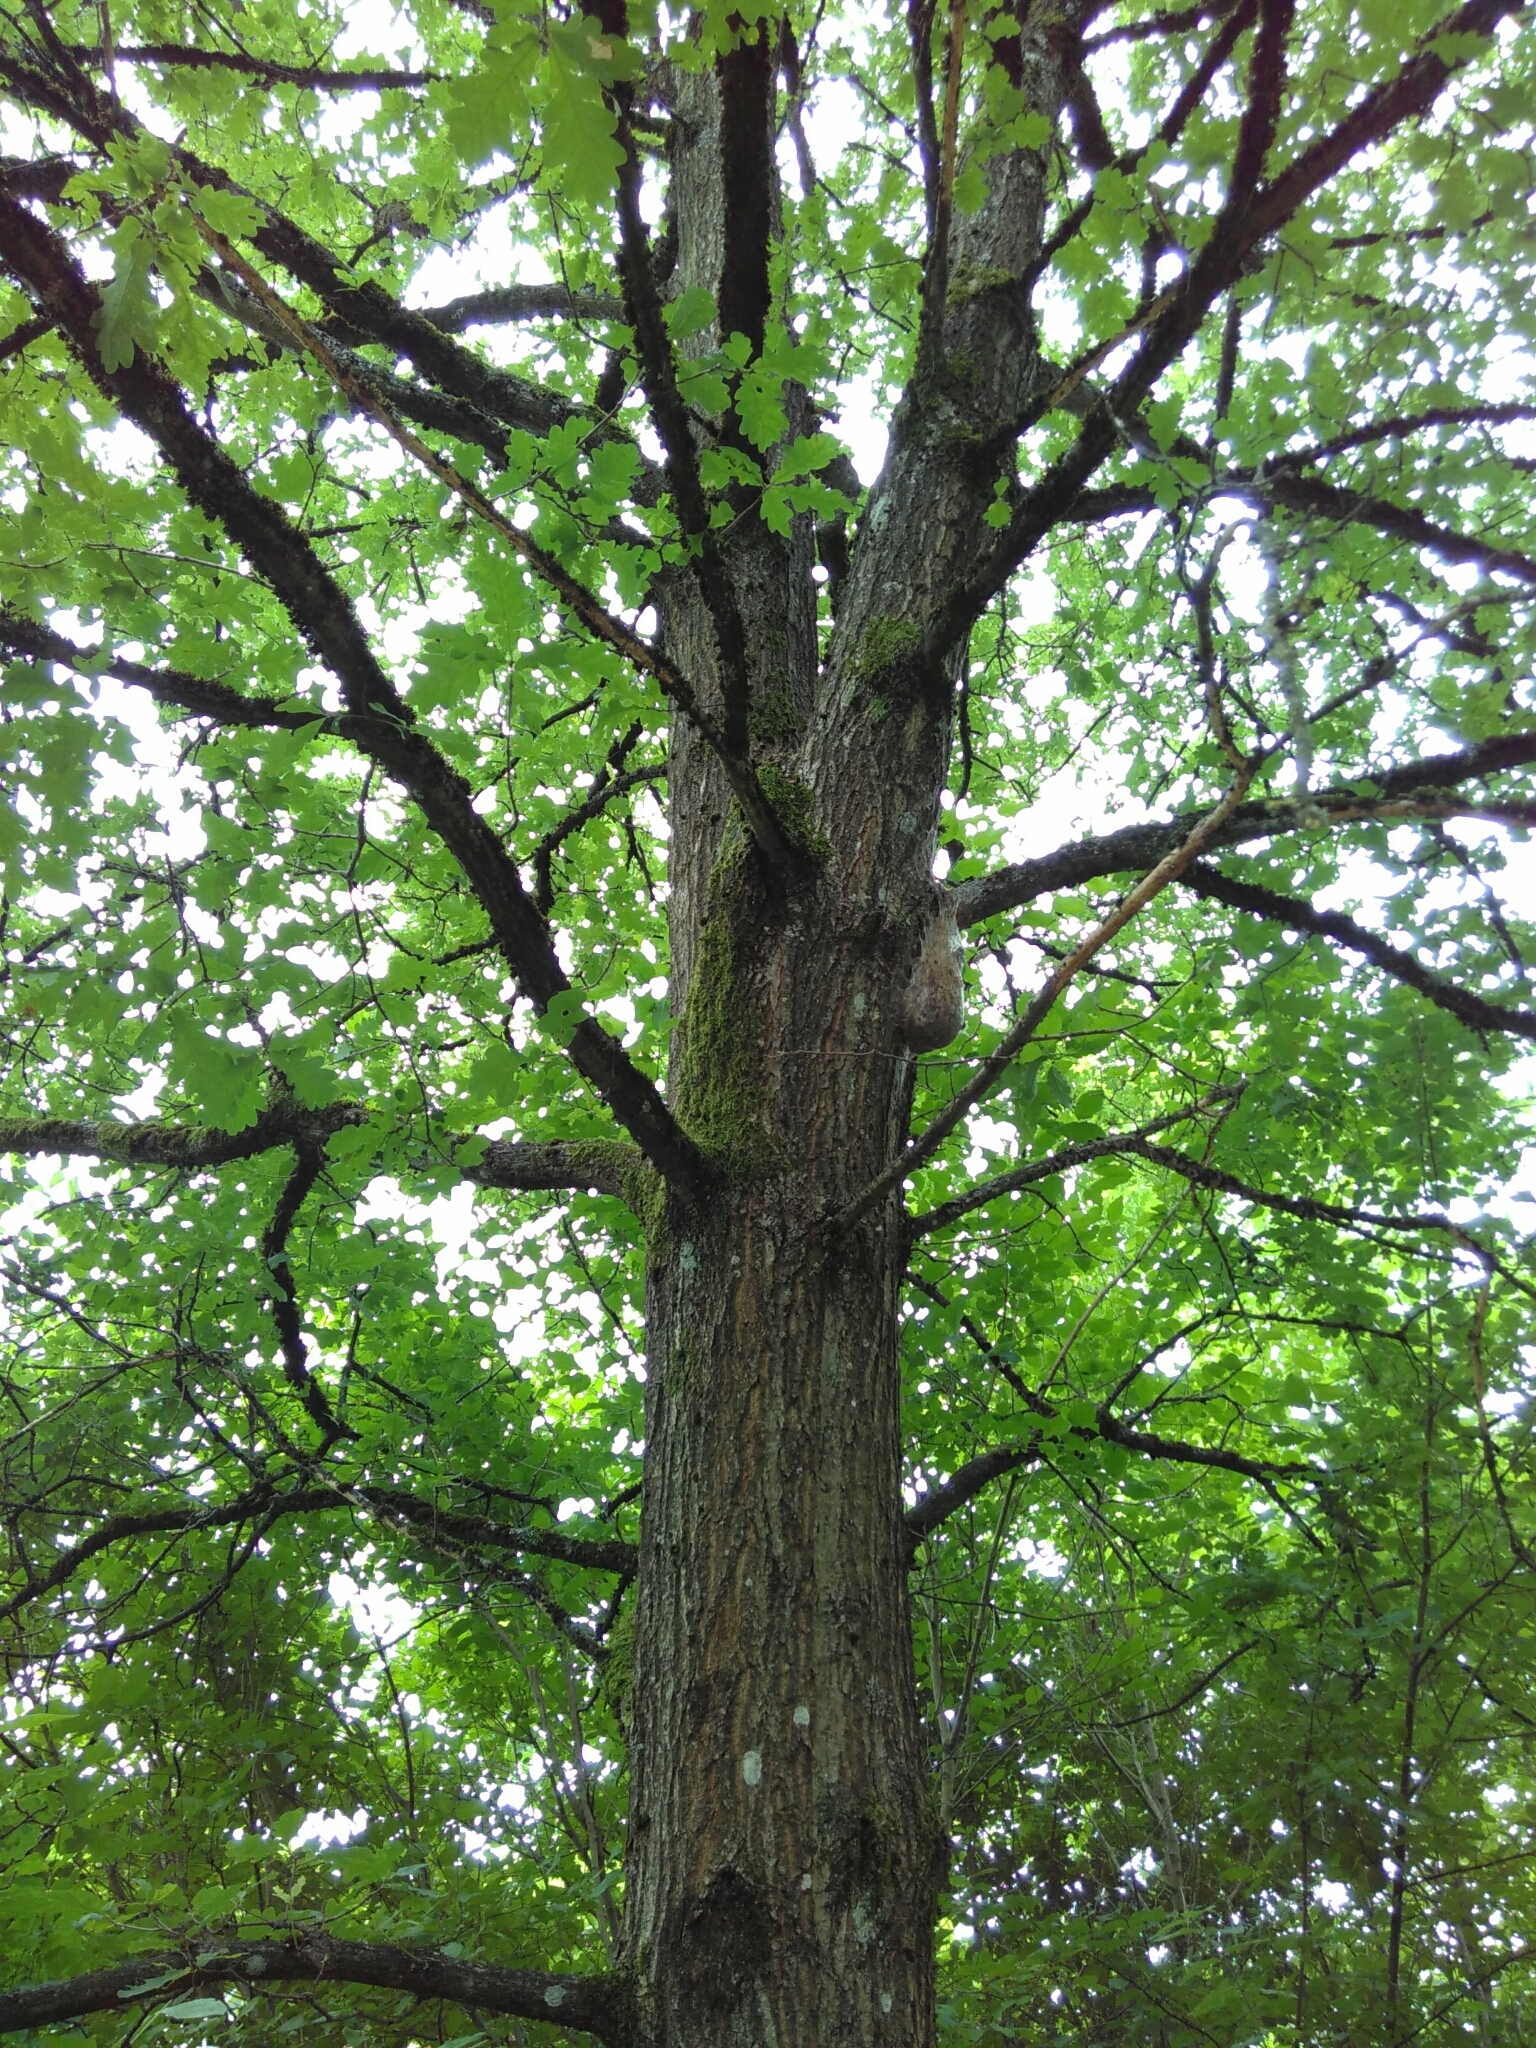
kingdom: Animalia
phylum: Arthropoda
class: Insecta
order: Lepidoptera
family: Notodontidae
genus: Thaumetopoea
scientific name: Thaumetopoea processionea
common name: Oak processionea
